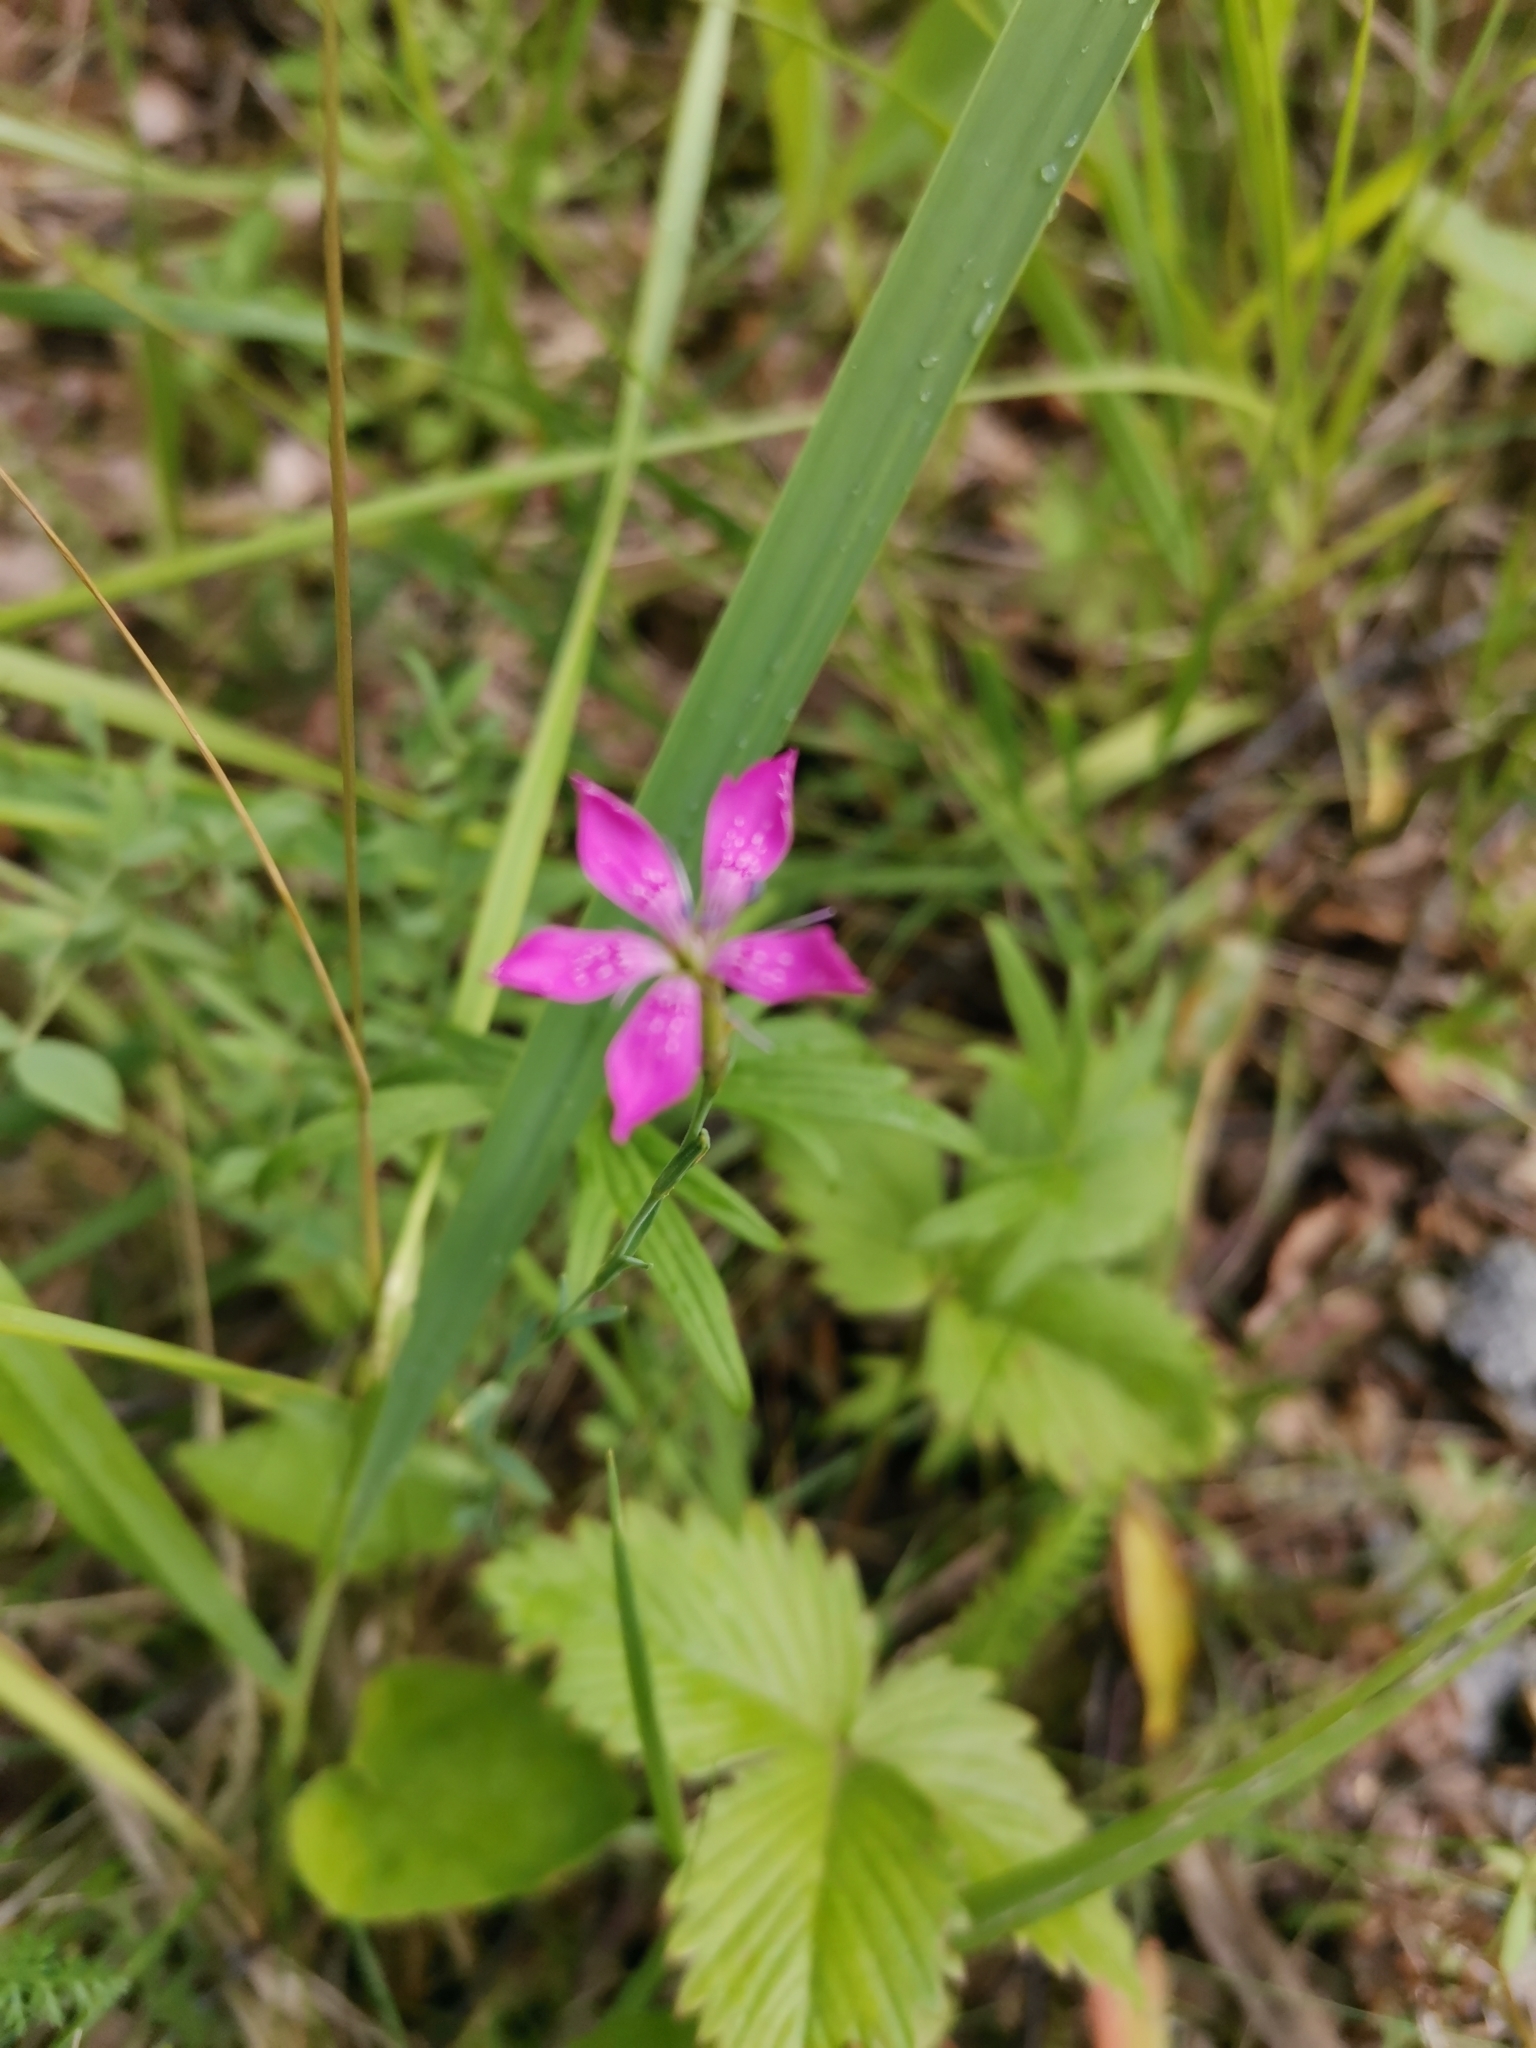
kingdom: Plantae
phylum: Tracheophyta
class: Magnoliopsida
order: Caryophyllales
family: Caryophyllaceae
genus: Dianthus
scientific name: Dianthus deltoides
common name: Maiden pink
